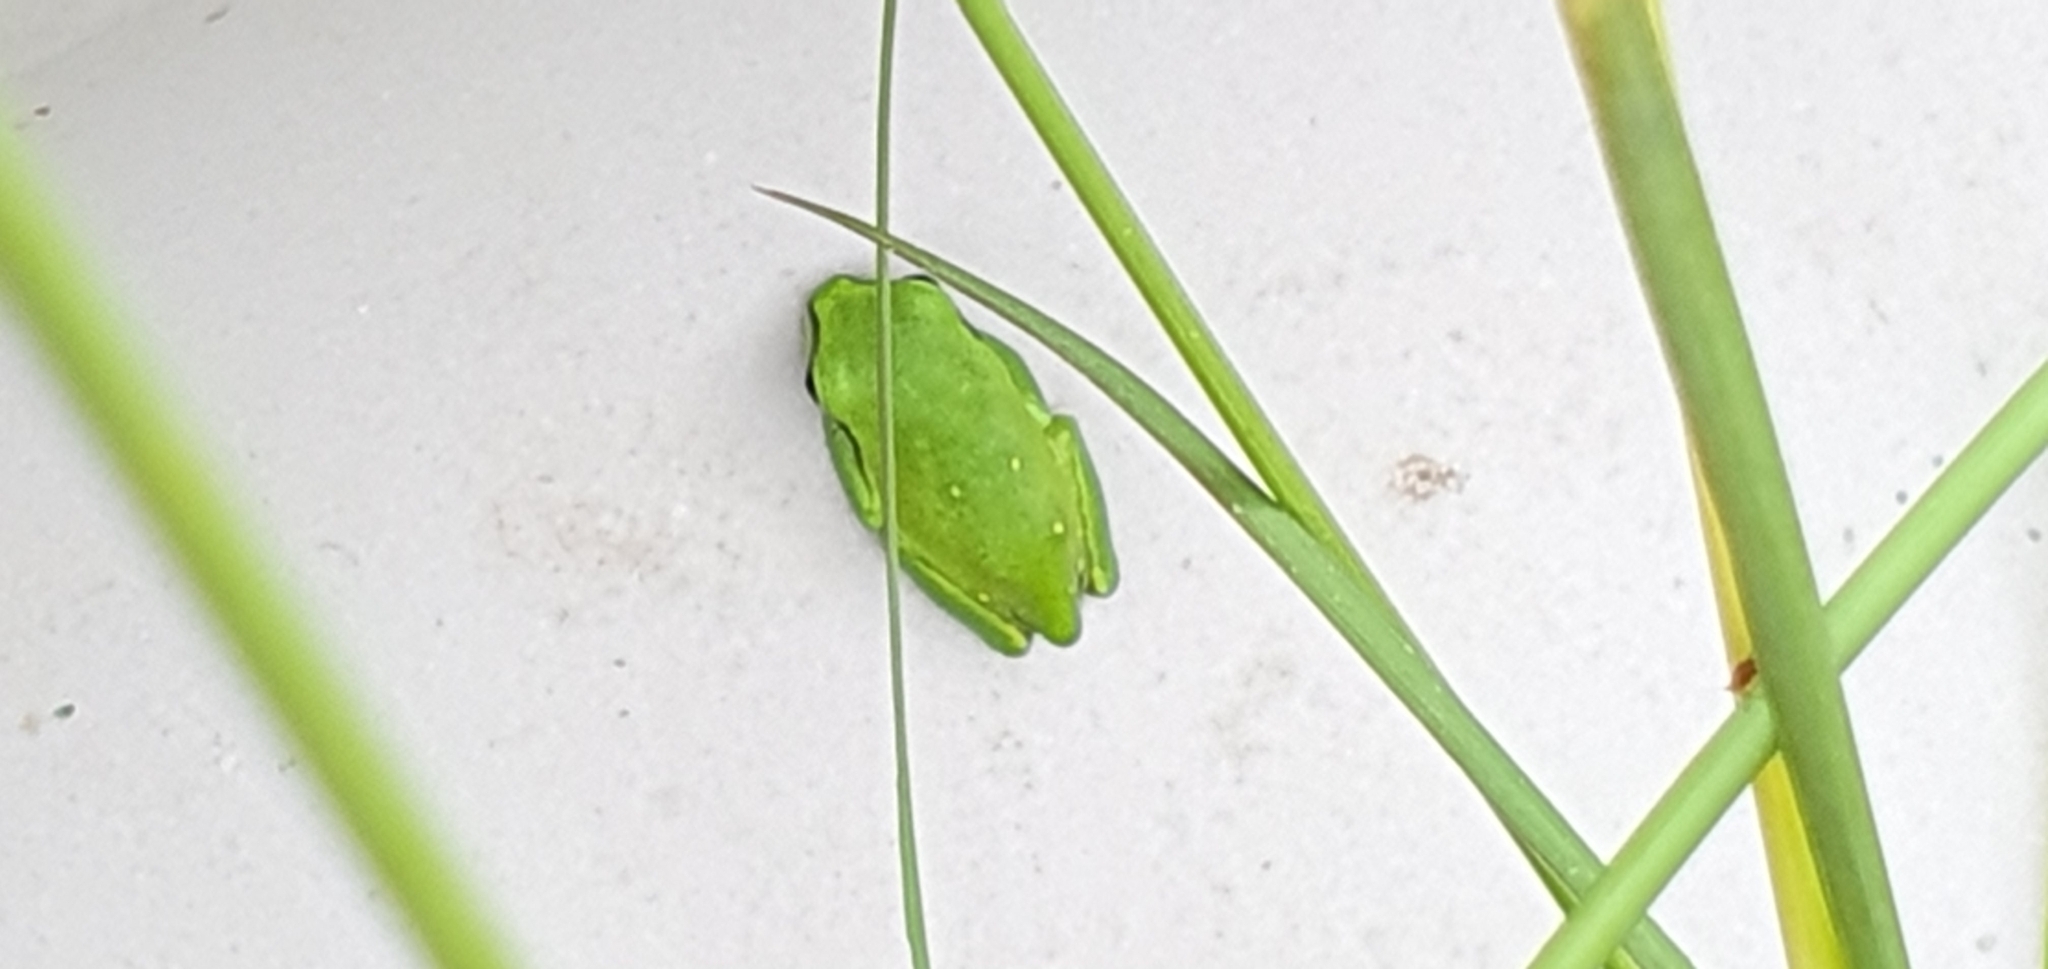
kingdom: Animalia
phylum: Chordata
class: Amphibia
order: Anura
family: Pelodryadidae
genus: Ranoidea
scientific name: Ranoidea caerulea
